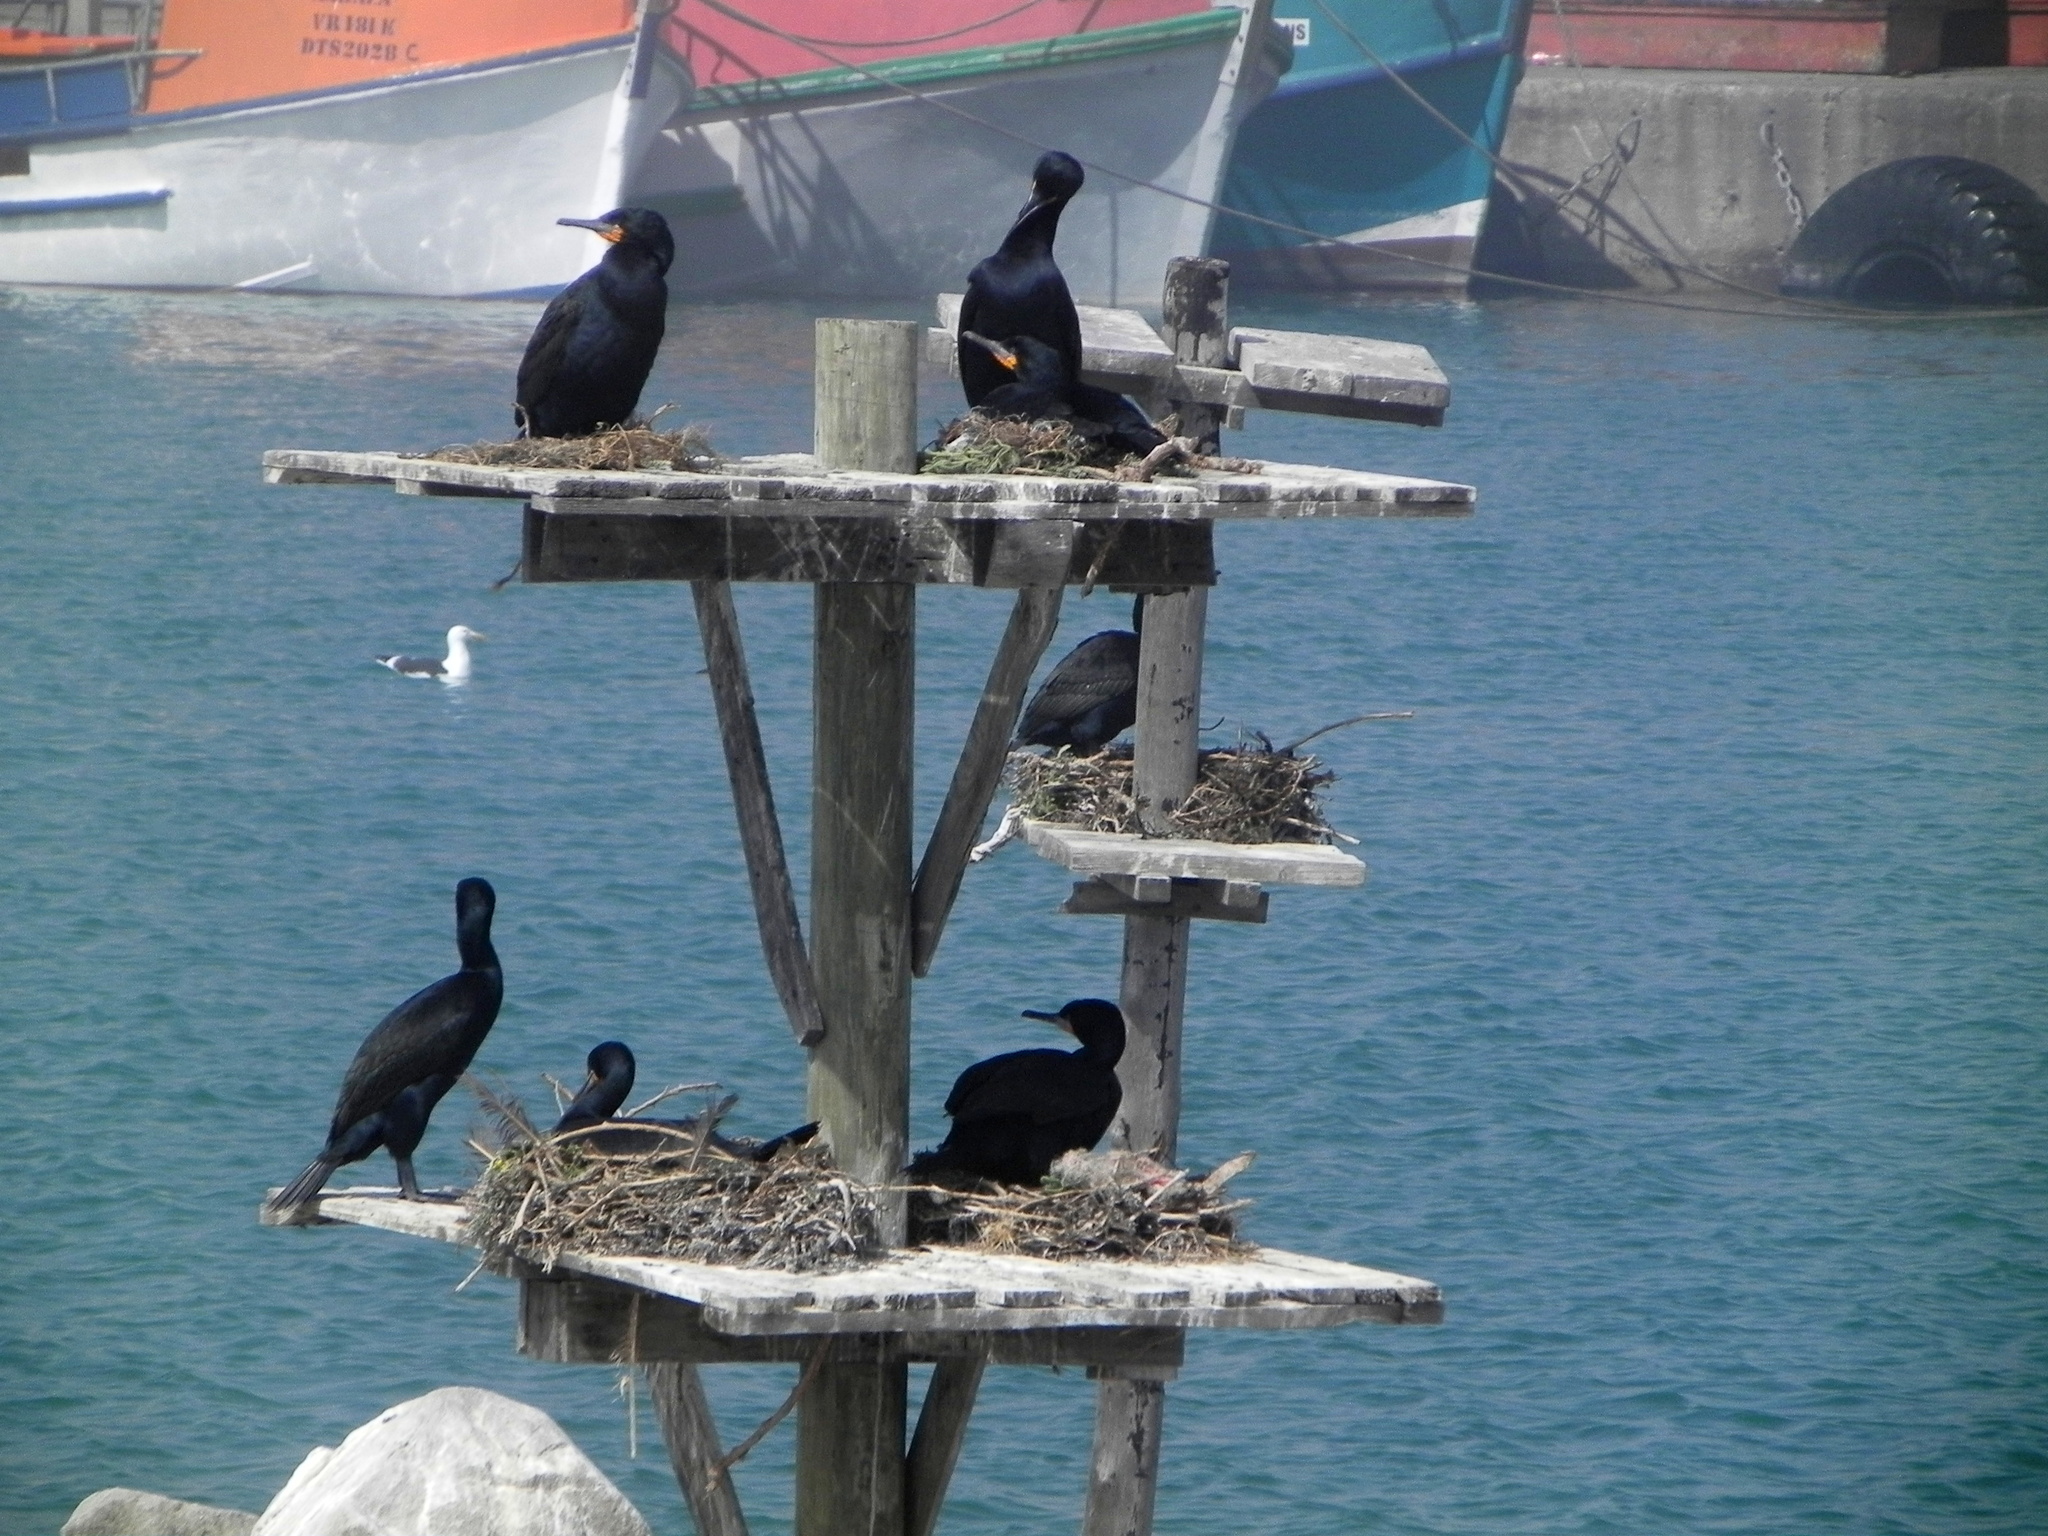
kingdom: Animalia
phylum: Chordata
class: Aves
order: Suliformes
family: Phalacrocoracidae
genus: Phalacrocorax
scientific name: Phalacrocorax capensis
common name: Cape cormorant
